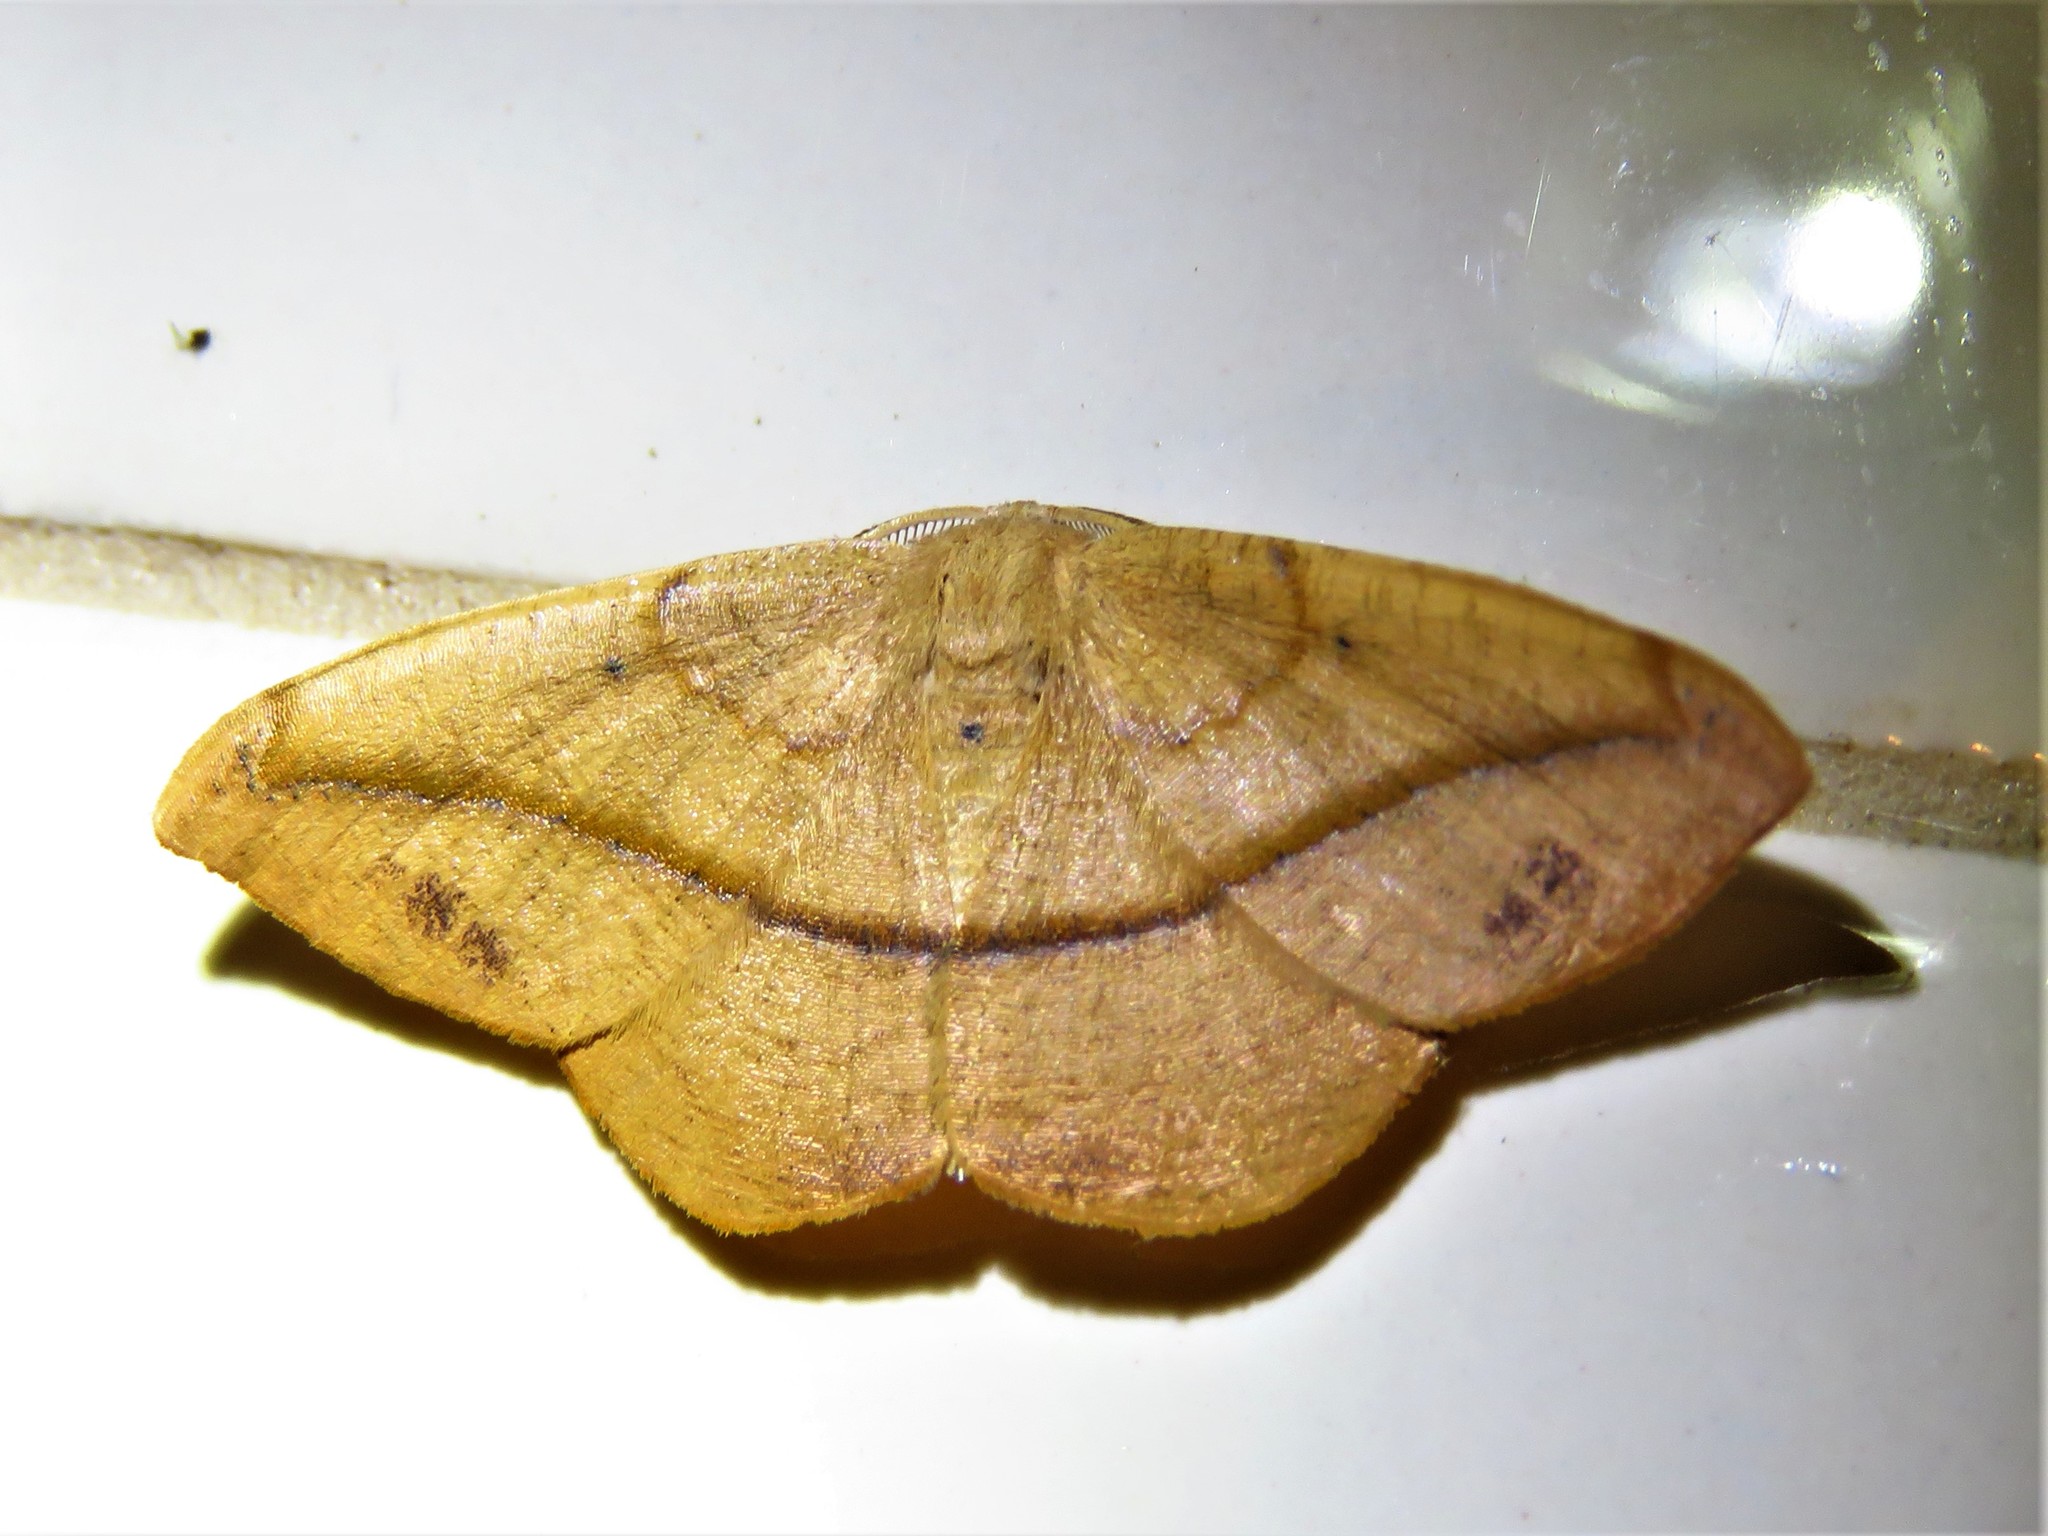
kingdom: Animalia
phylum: Arthropoda
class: Insecta
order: Lepidoptera
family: Geometridae
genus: Patalene
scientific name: Patalene olyzonaria
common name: Juniper geometer moth
